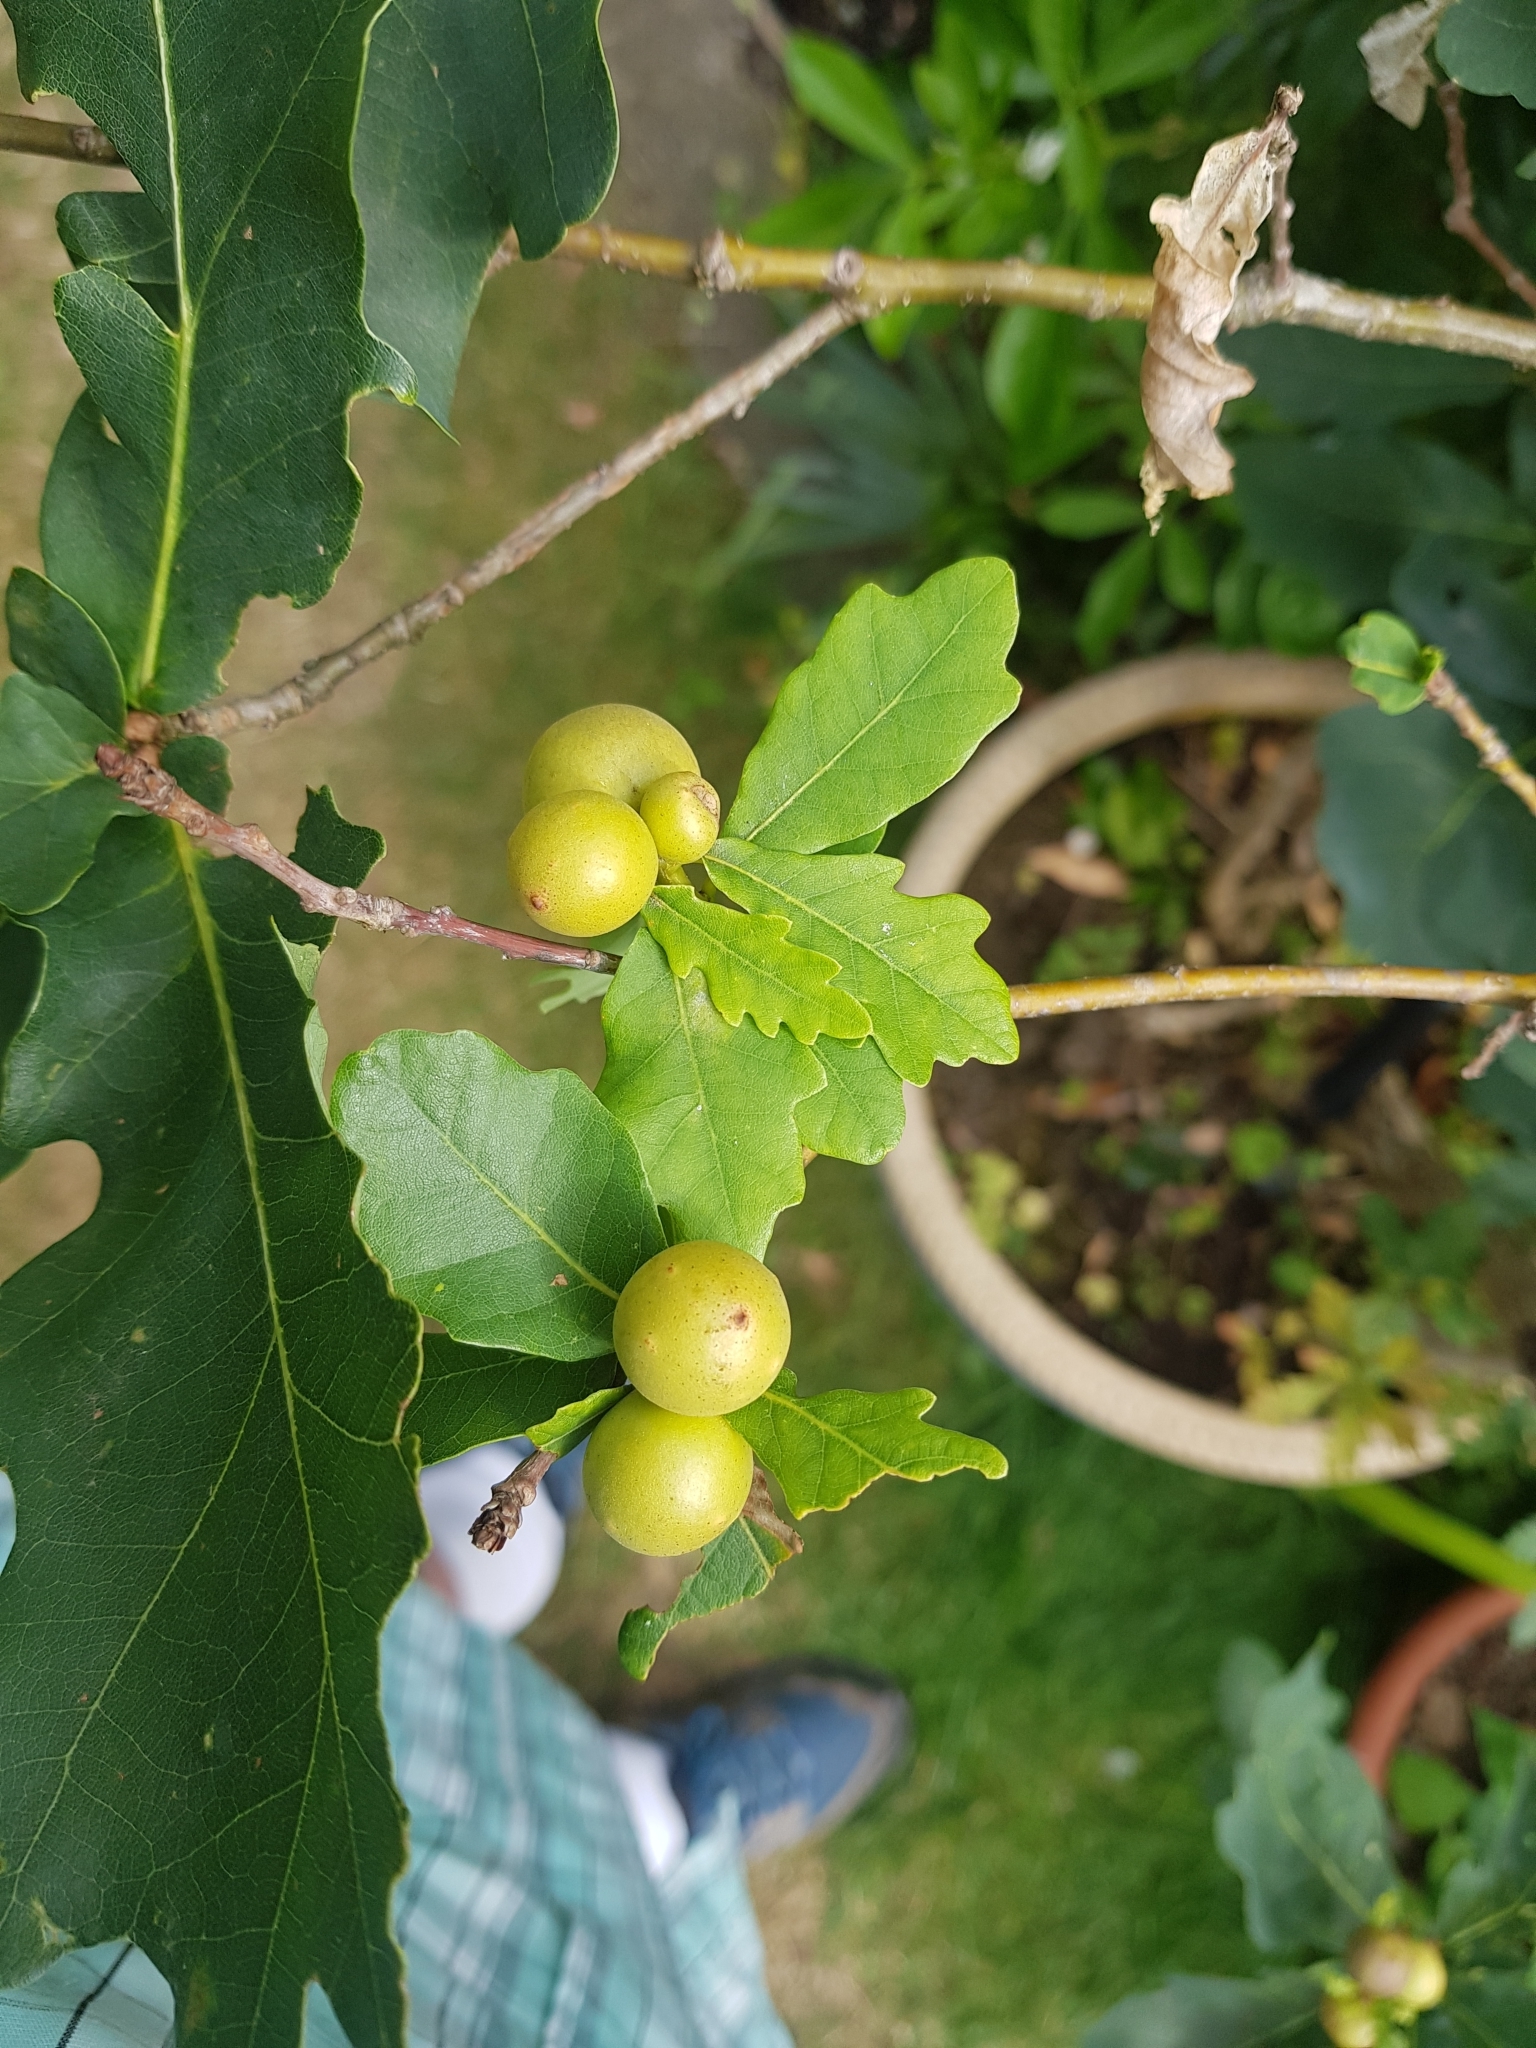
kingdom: Animalia
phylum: Arthropoda
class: Insecta
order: Hymenoptera
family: Cynipidae
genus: Andricus
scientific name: Andricus kollari
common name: Marble gall
